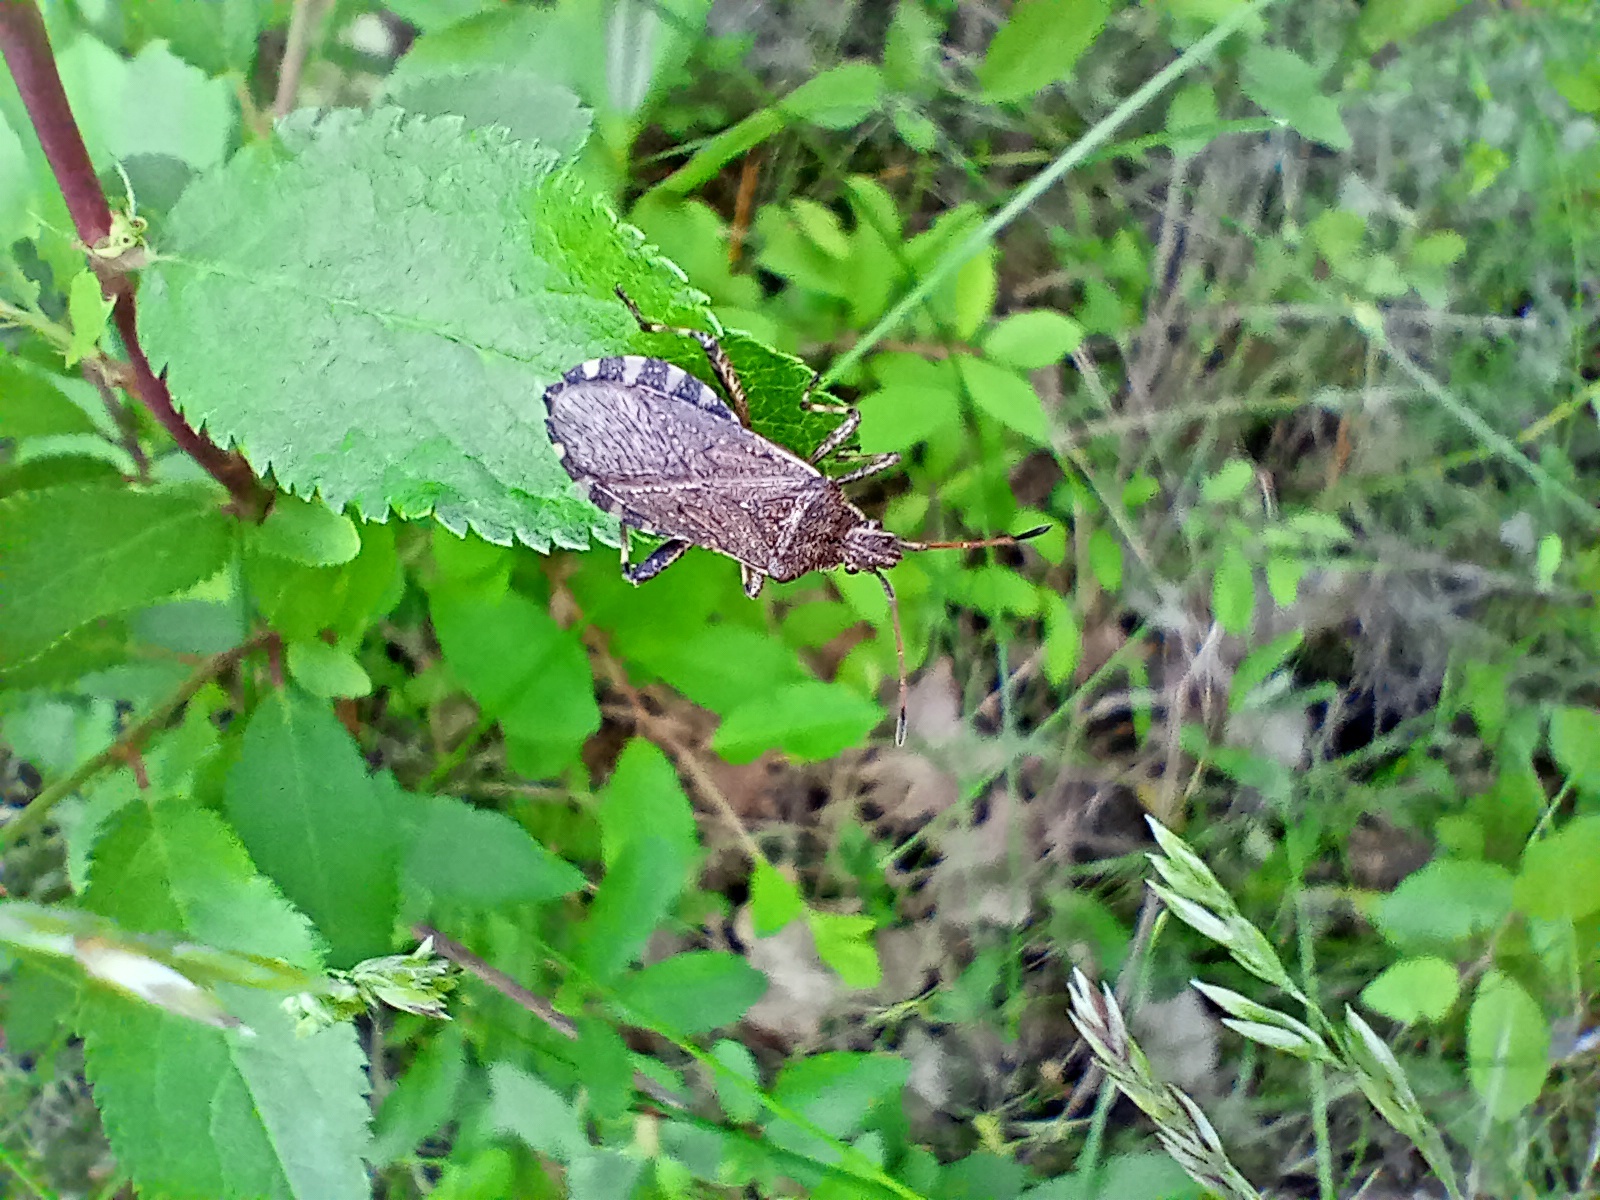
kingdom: Animalia
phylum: Arthropoda
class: Insecta
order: Hemiptera
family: Coreidae
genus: Ceraleptus
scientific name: Ceraleptus gracilicornis
